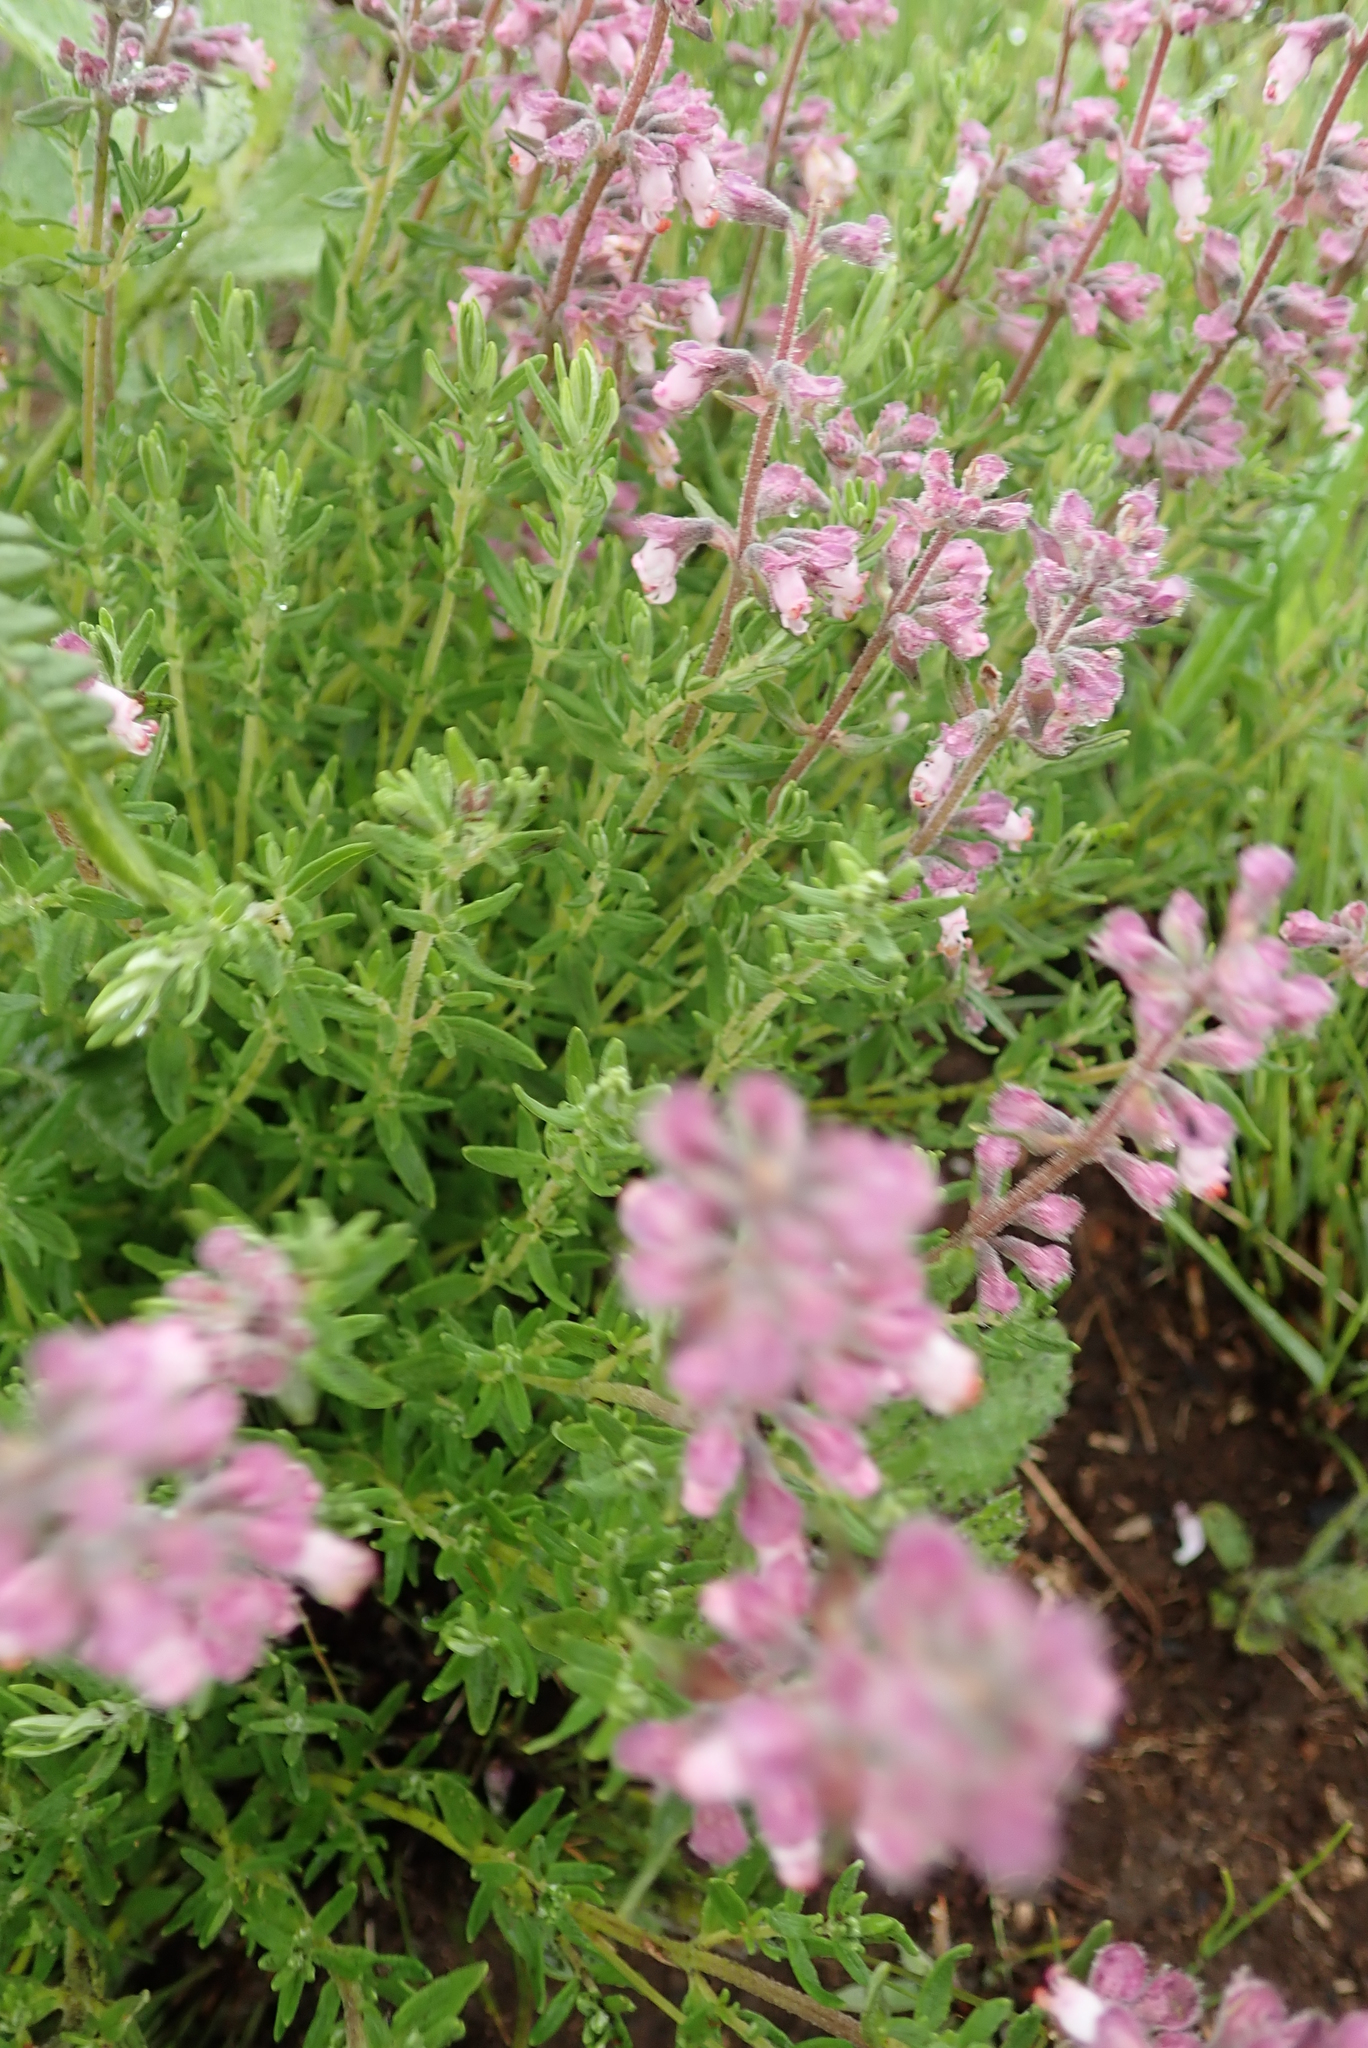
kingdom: Plantae
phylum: Tracheophyta
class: Magnoliopsida
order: Lamiales
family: Lamiaceae
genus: Syncolostemon
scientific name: Syncolostemon teucriifolius
